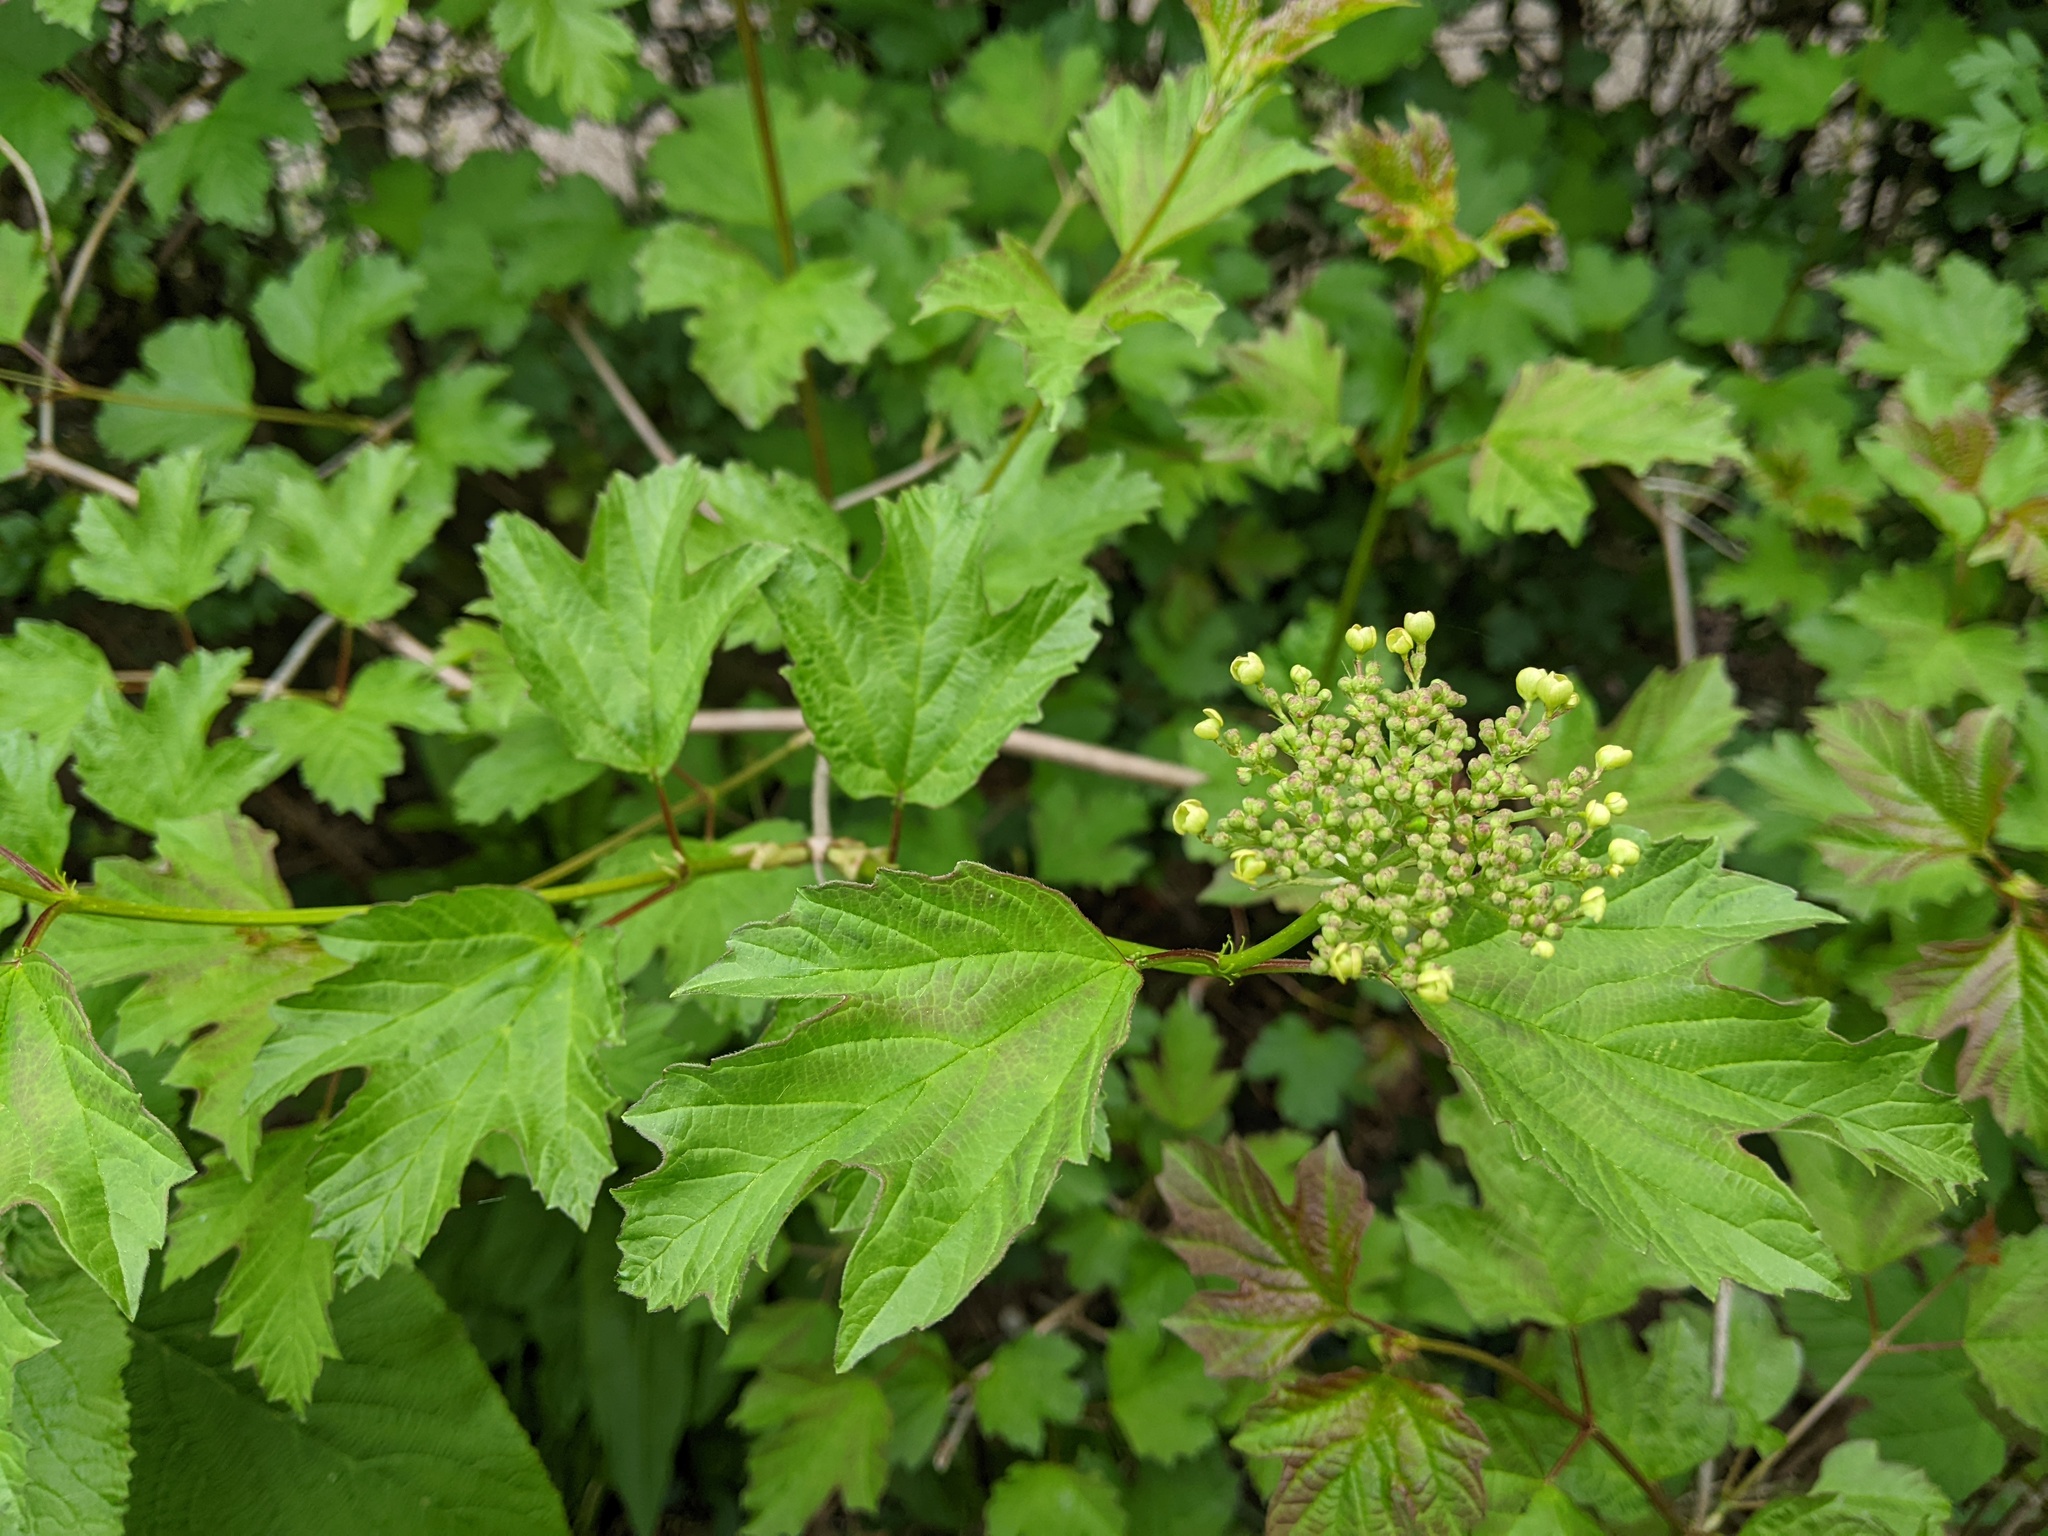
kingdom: Plantae
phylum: Tracheophyta
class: Magnoliopsida
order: Dipsacales
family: Viburnaceae
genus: Viburnum
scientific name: Viburnum opulus
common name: Guelder-rose
